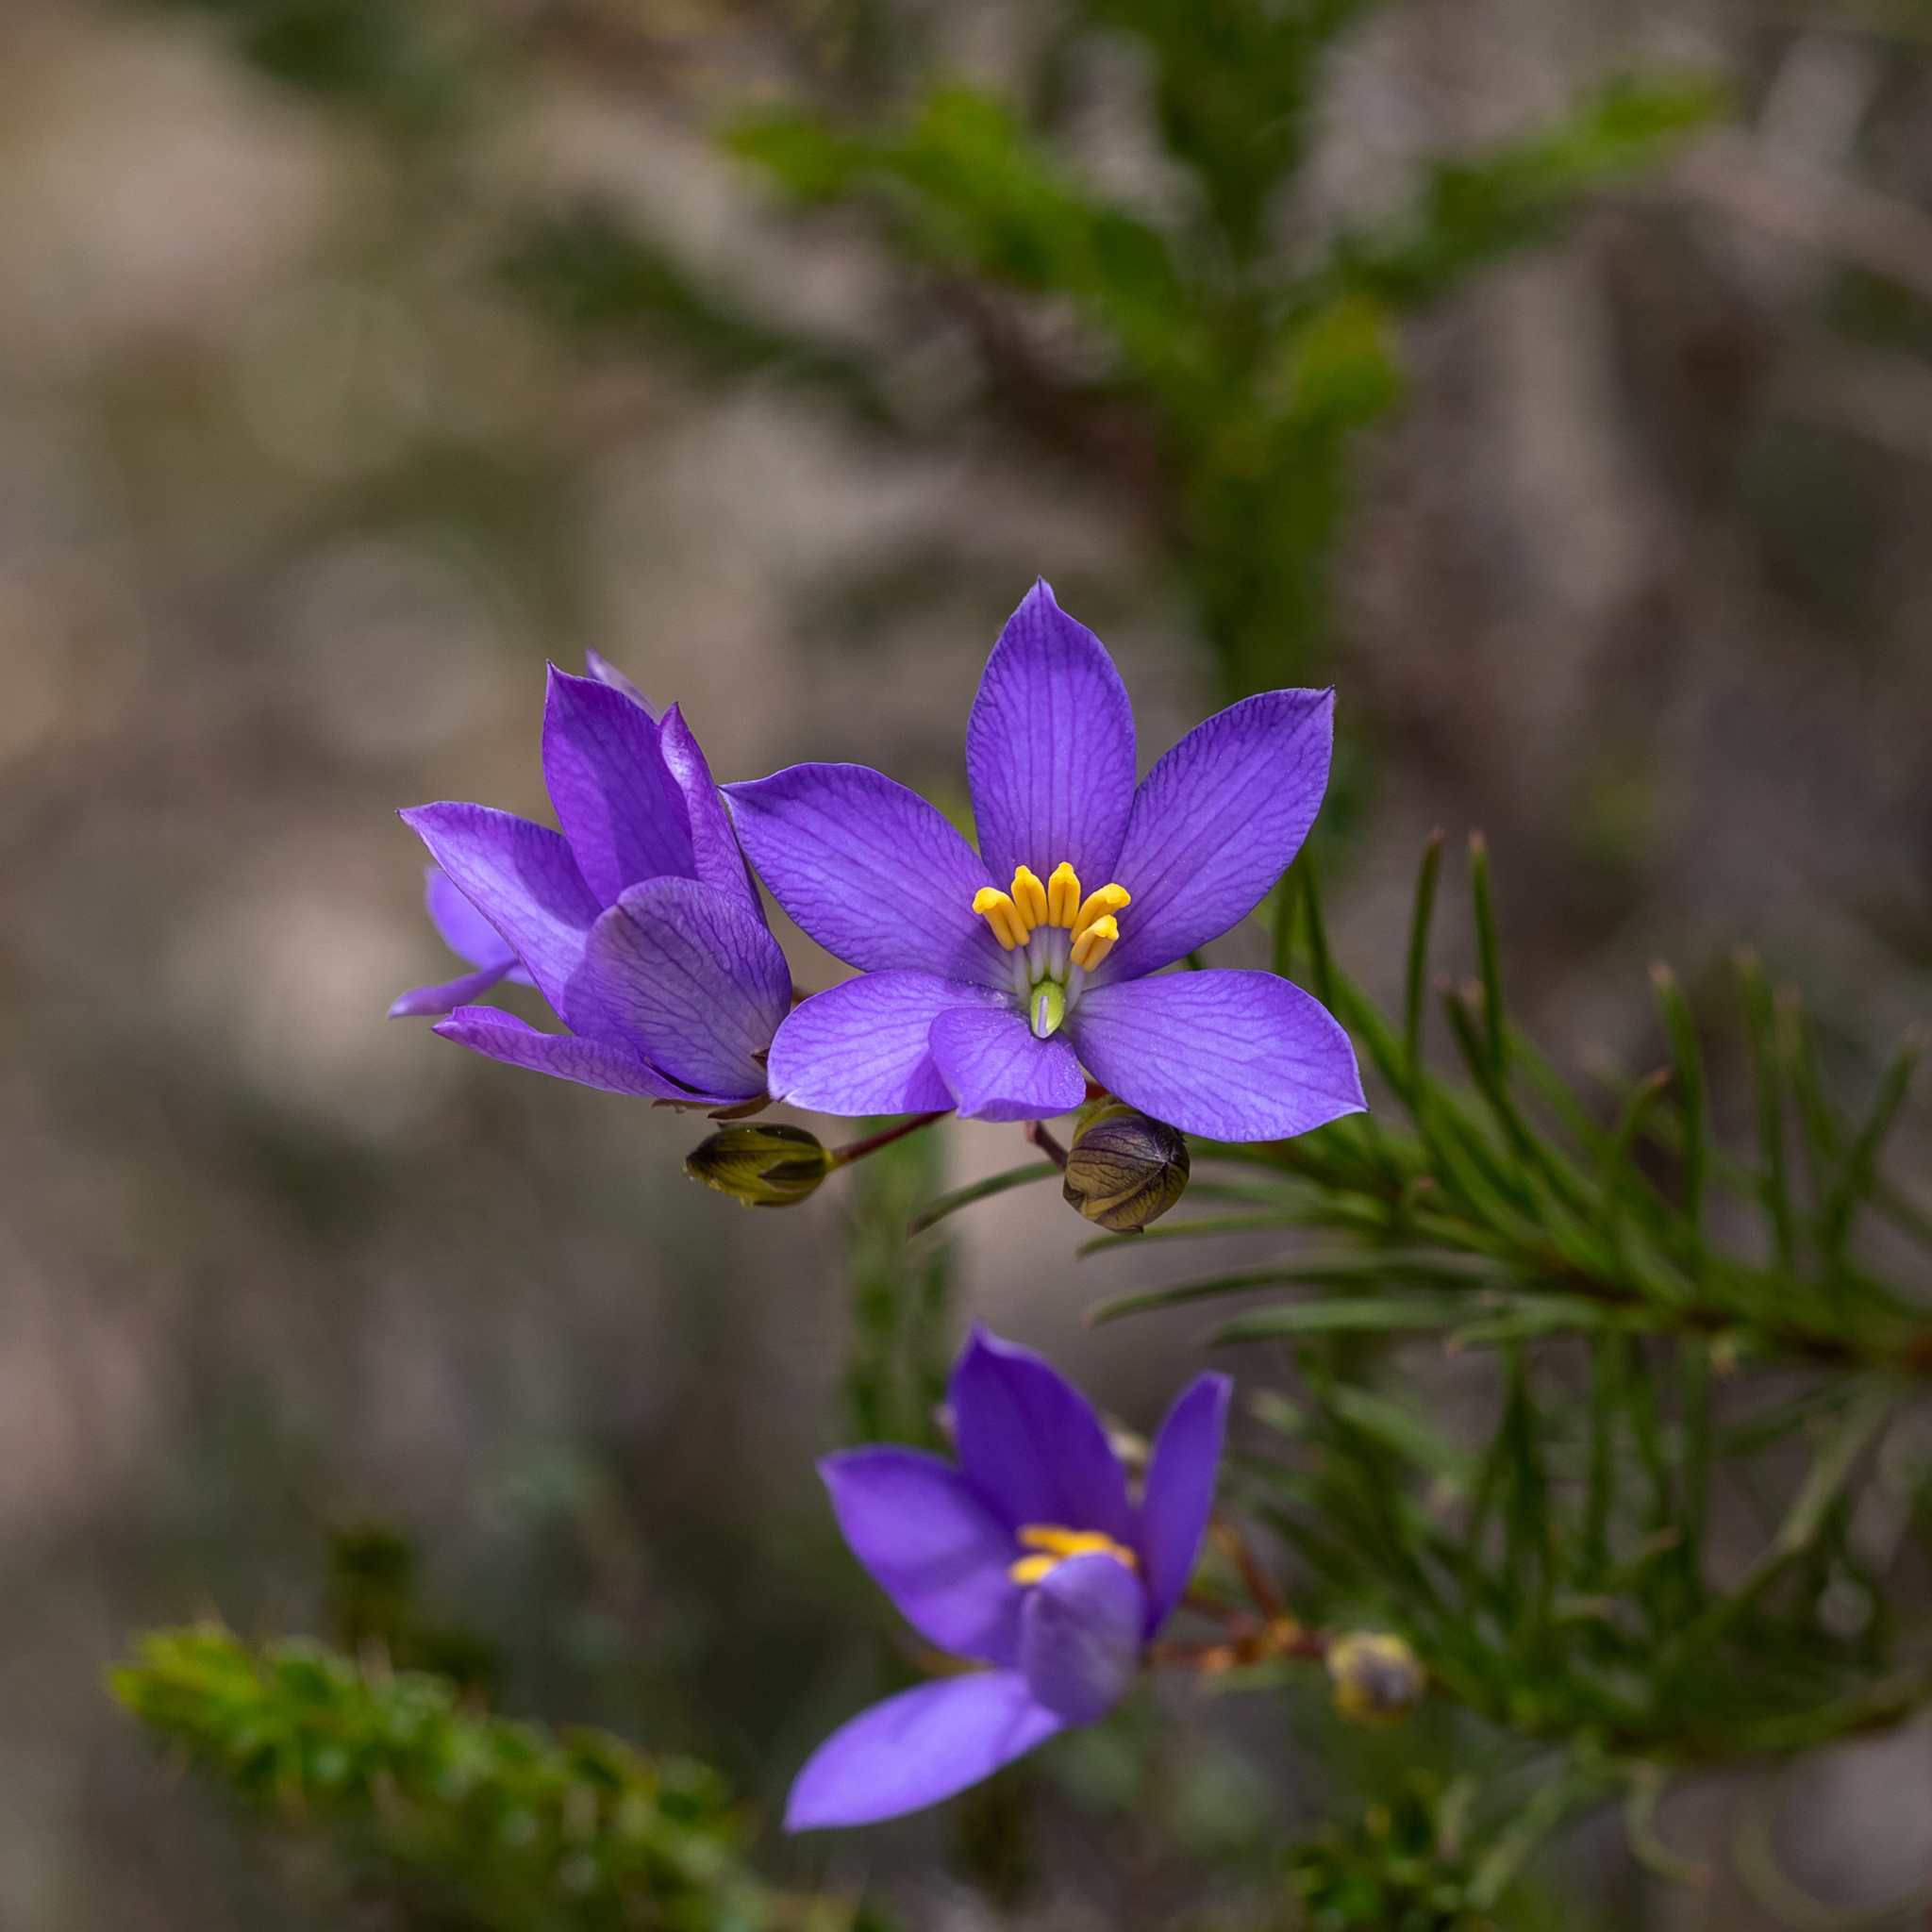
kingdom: Plantae
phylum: Tracheophyta
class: Magnoliopsida
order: Apiales
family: Pittosporaceae
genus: Cheiranthera
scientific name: Cheiranthera alternifolia
